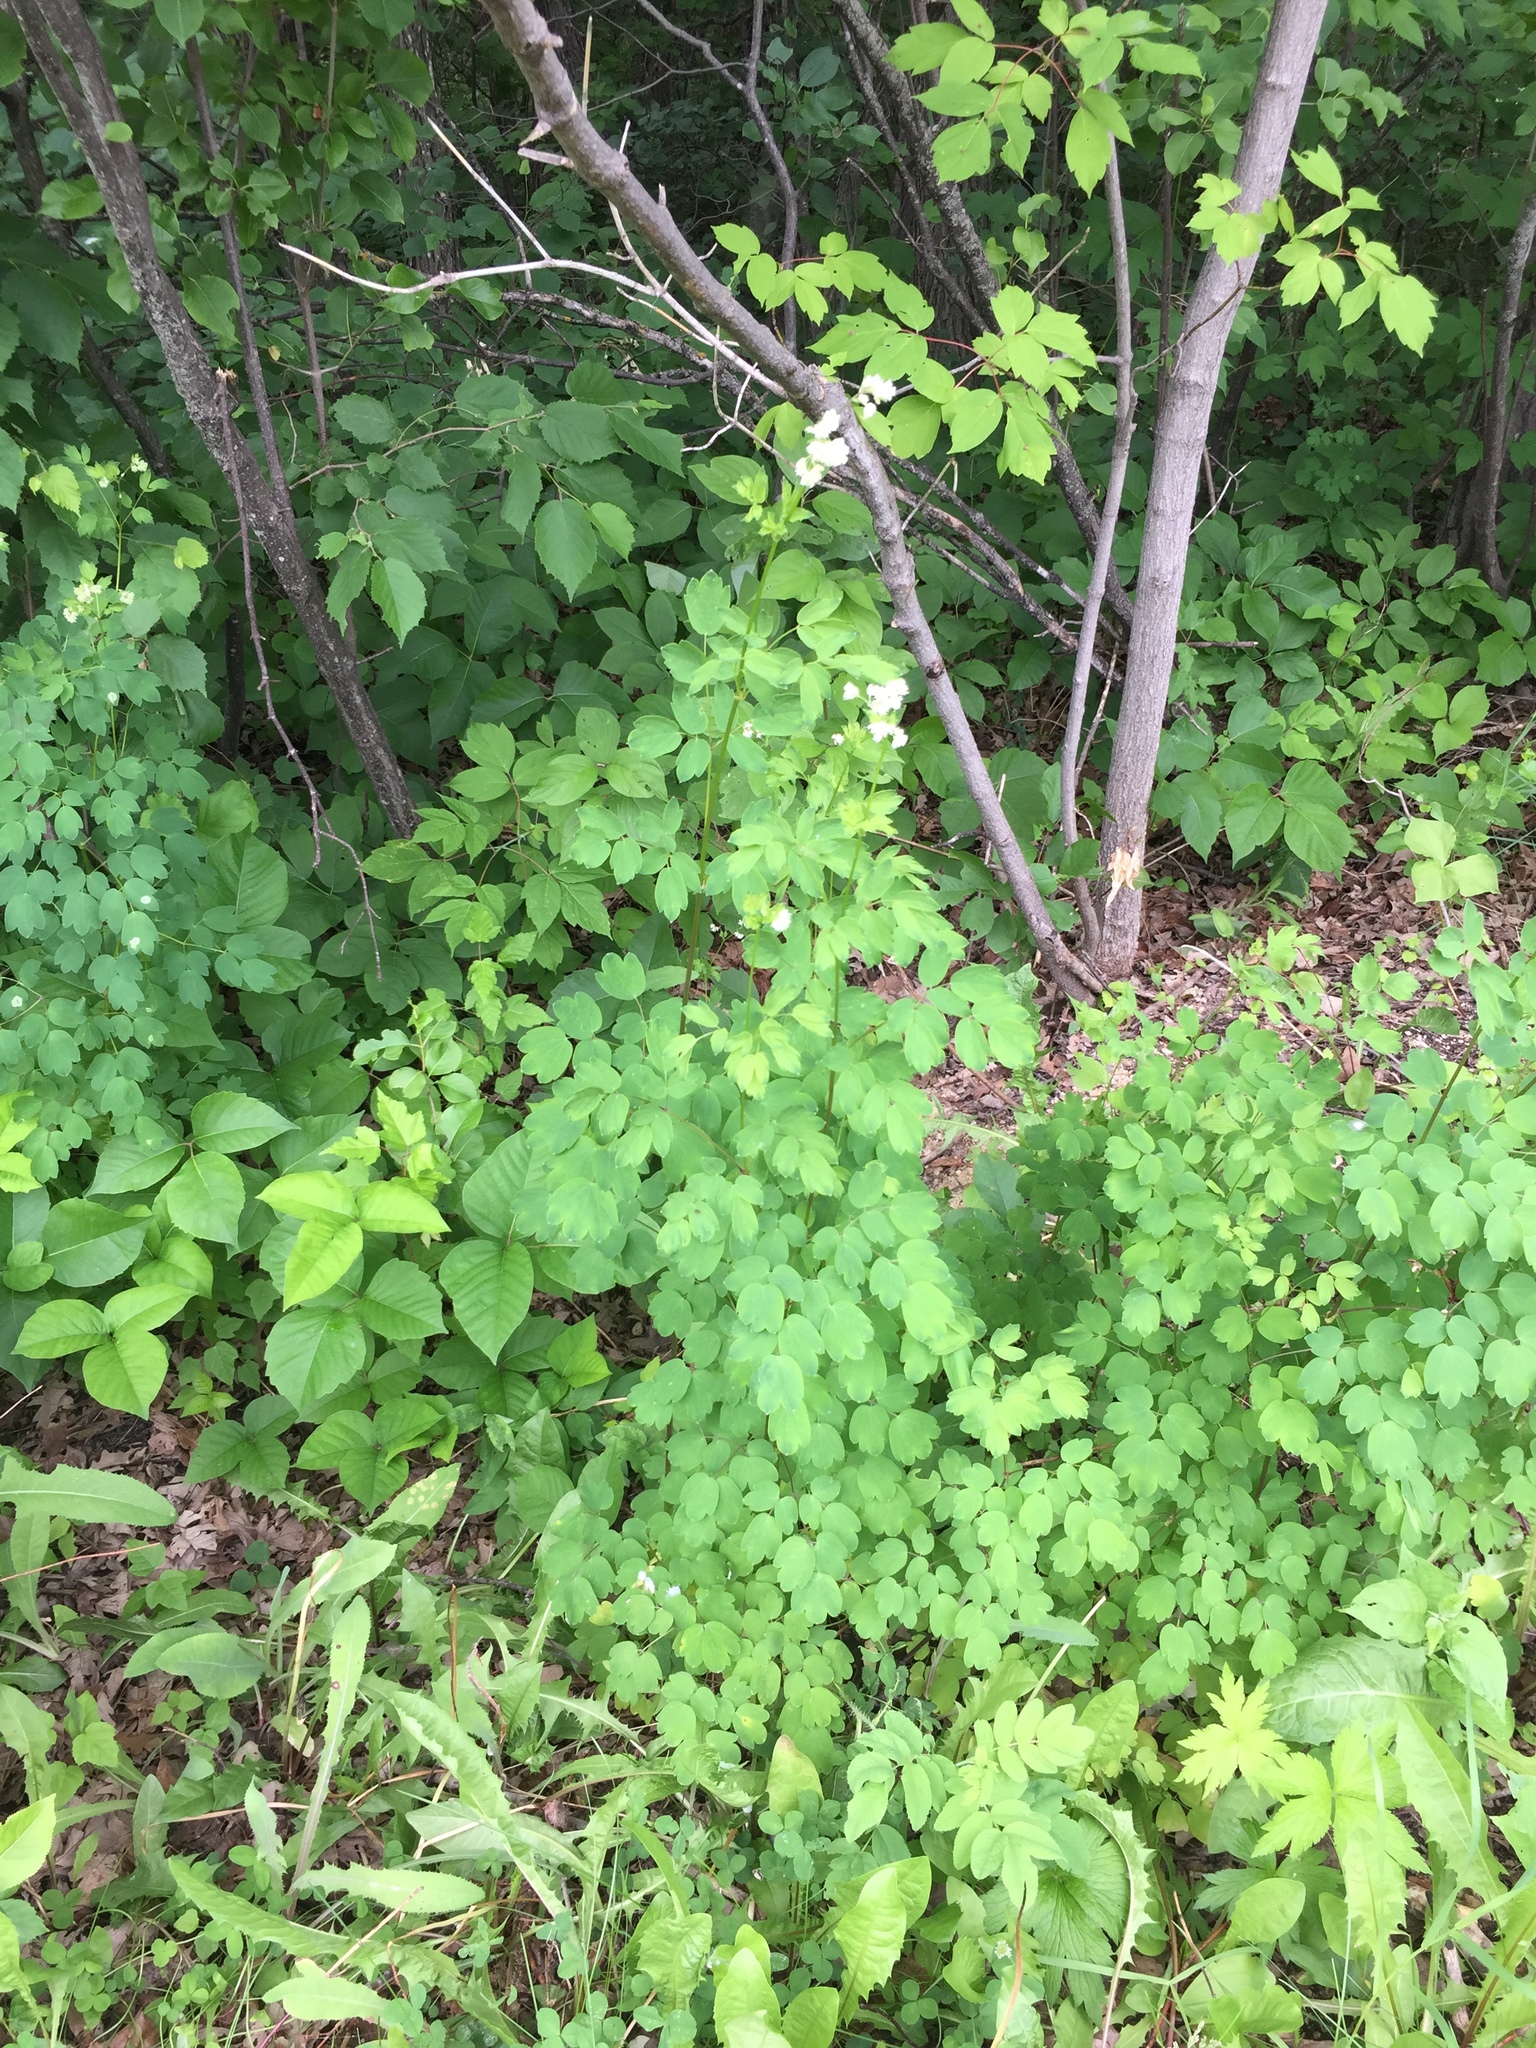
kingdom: Plantae
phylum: Tracheophyta
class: Magnoliopsida
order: Ranunculales
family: Ranunculaceae
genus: Thalictrum
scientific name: Thalictrum dasycarpum
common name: Purple meadow-rue
